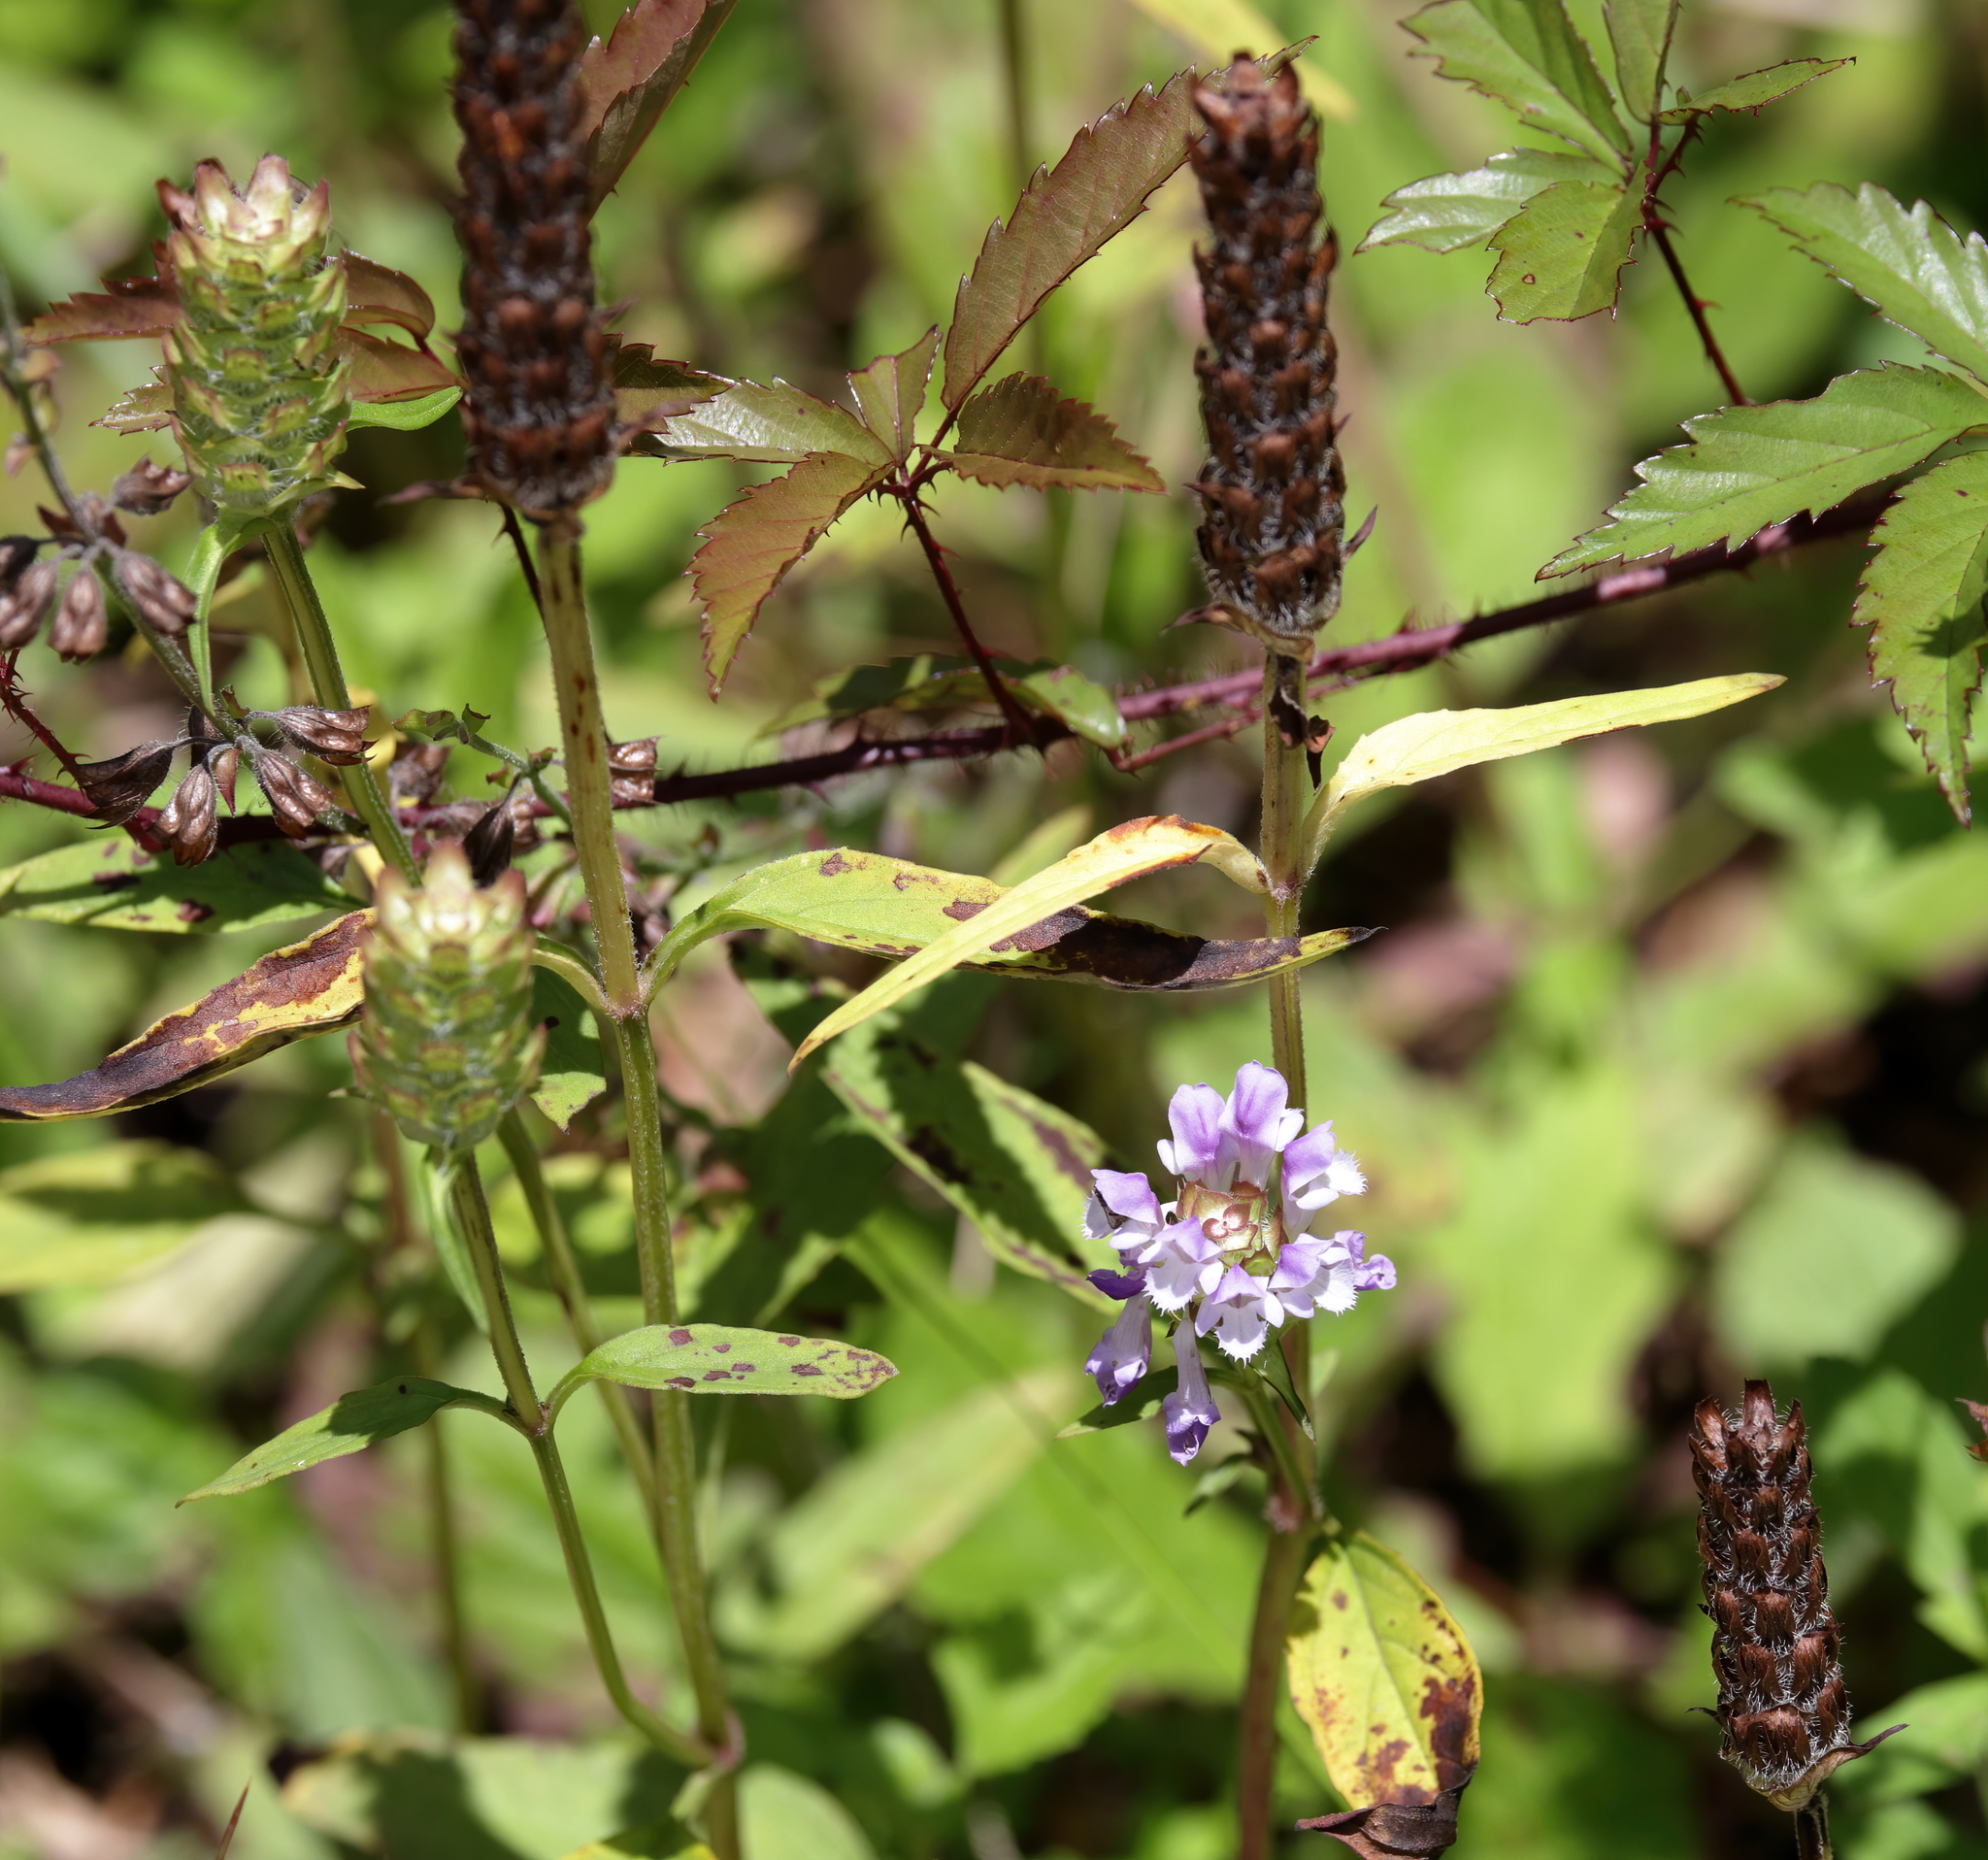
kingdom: Plantae
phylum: Tracheophyta
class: Magnoliopsida
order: Lamiales
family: Lamiaceae
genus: Prunella
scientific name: Prunella vulgaris
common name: Heal-all
